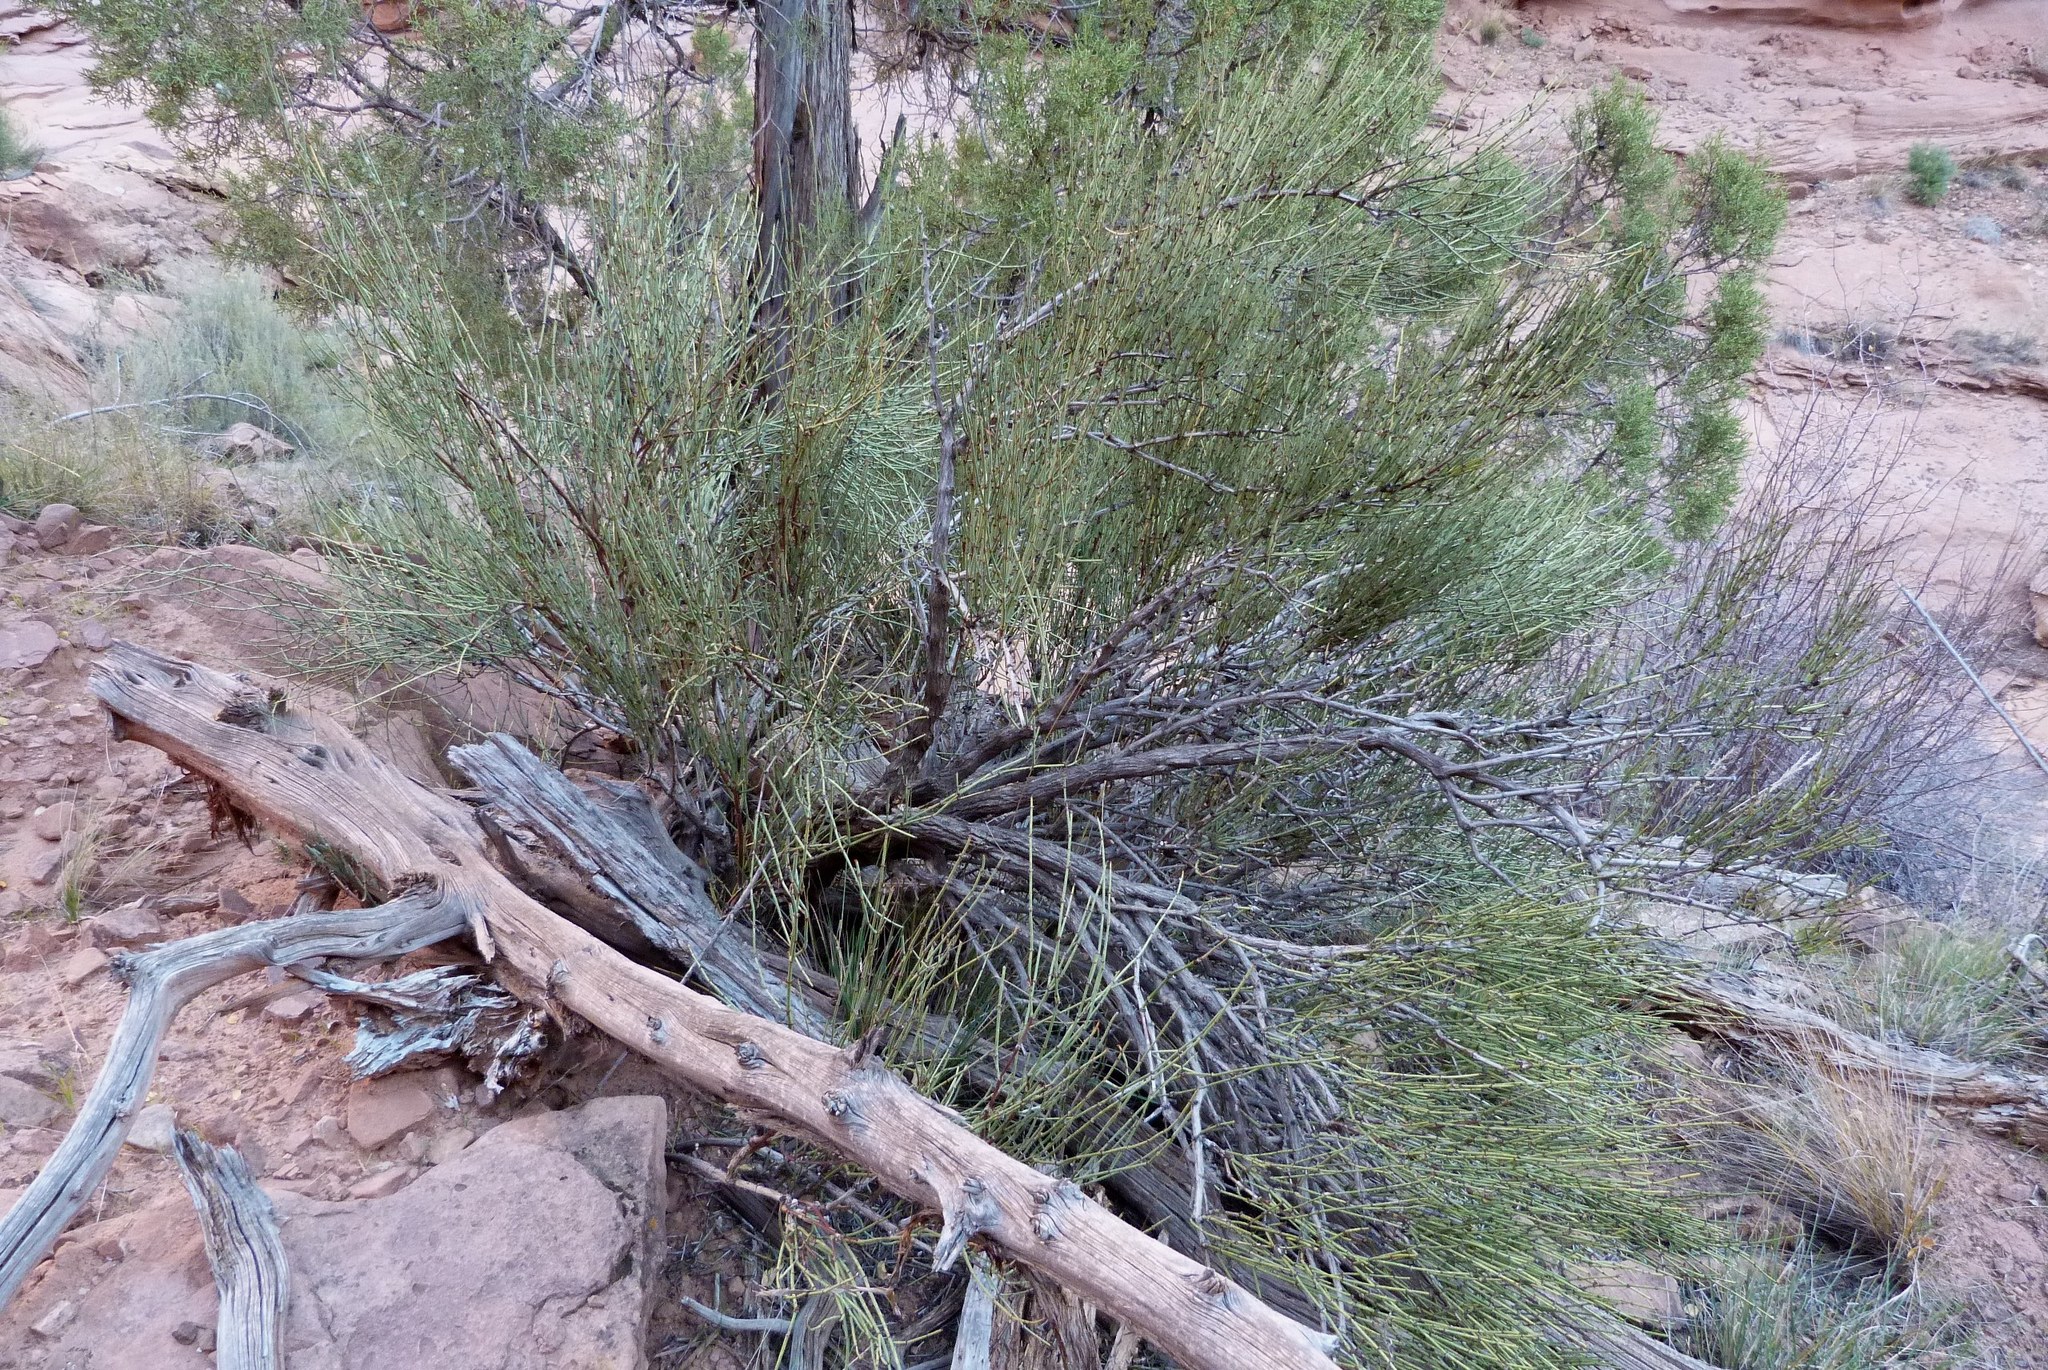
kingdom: Plantae
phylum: Tracheophyta
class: Gnetopsida
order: Ephedrales
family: Ephedraceae
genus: Ephedra
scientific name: Ephedra viridis
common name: Green ephedra
